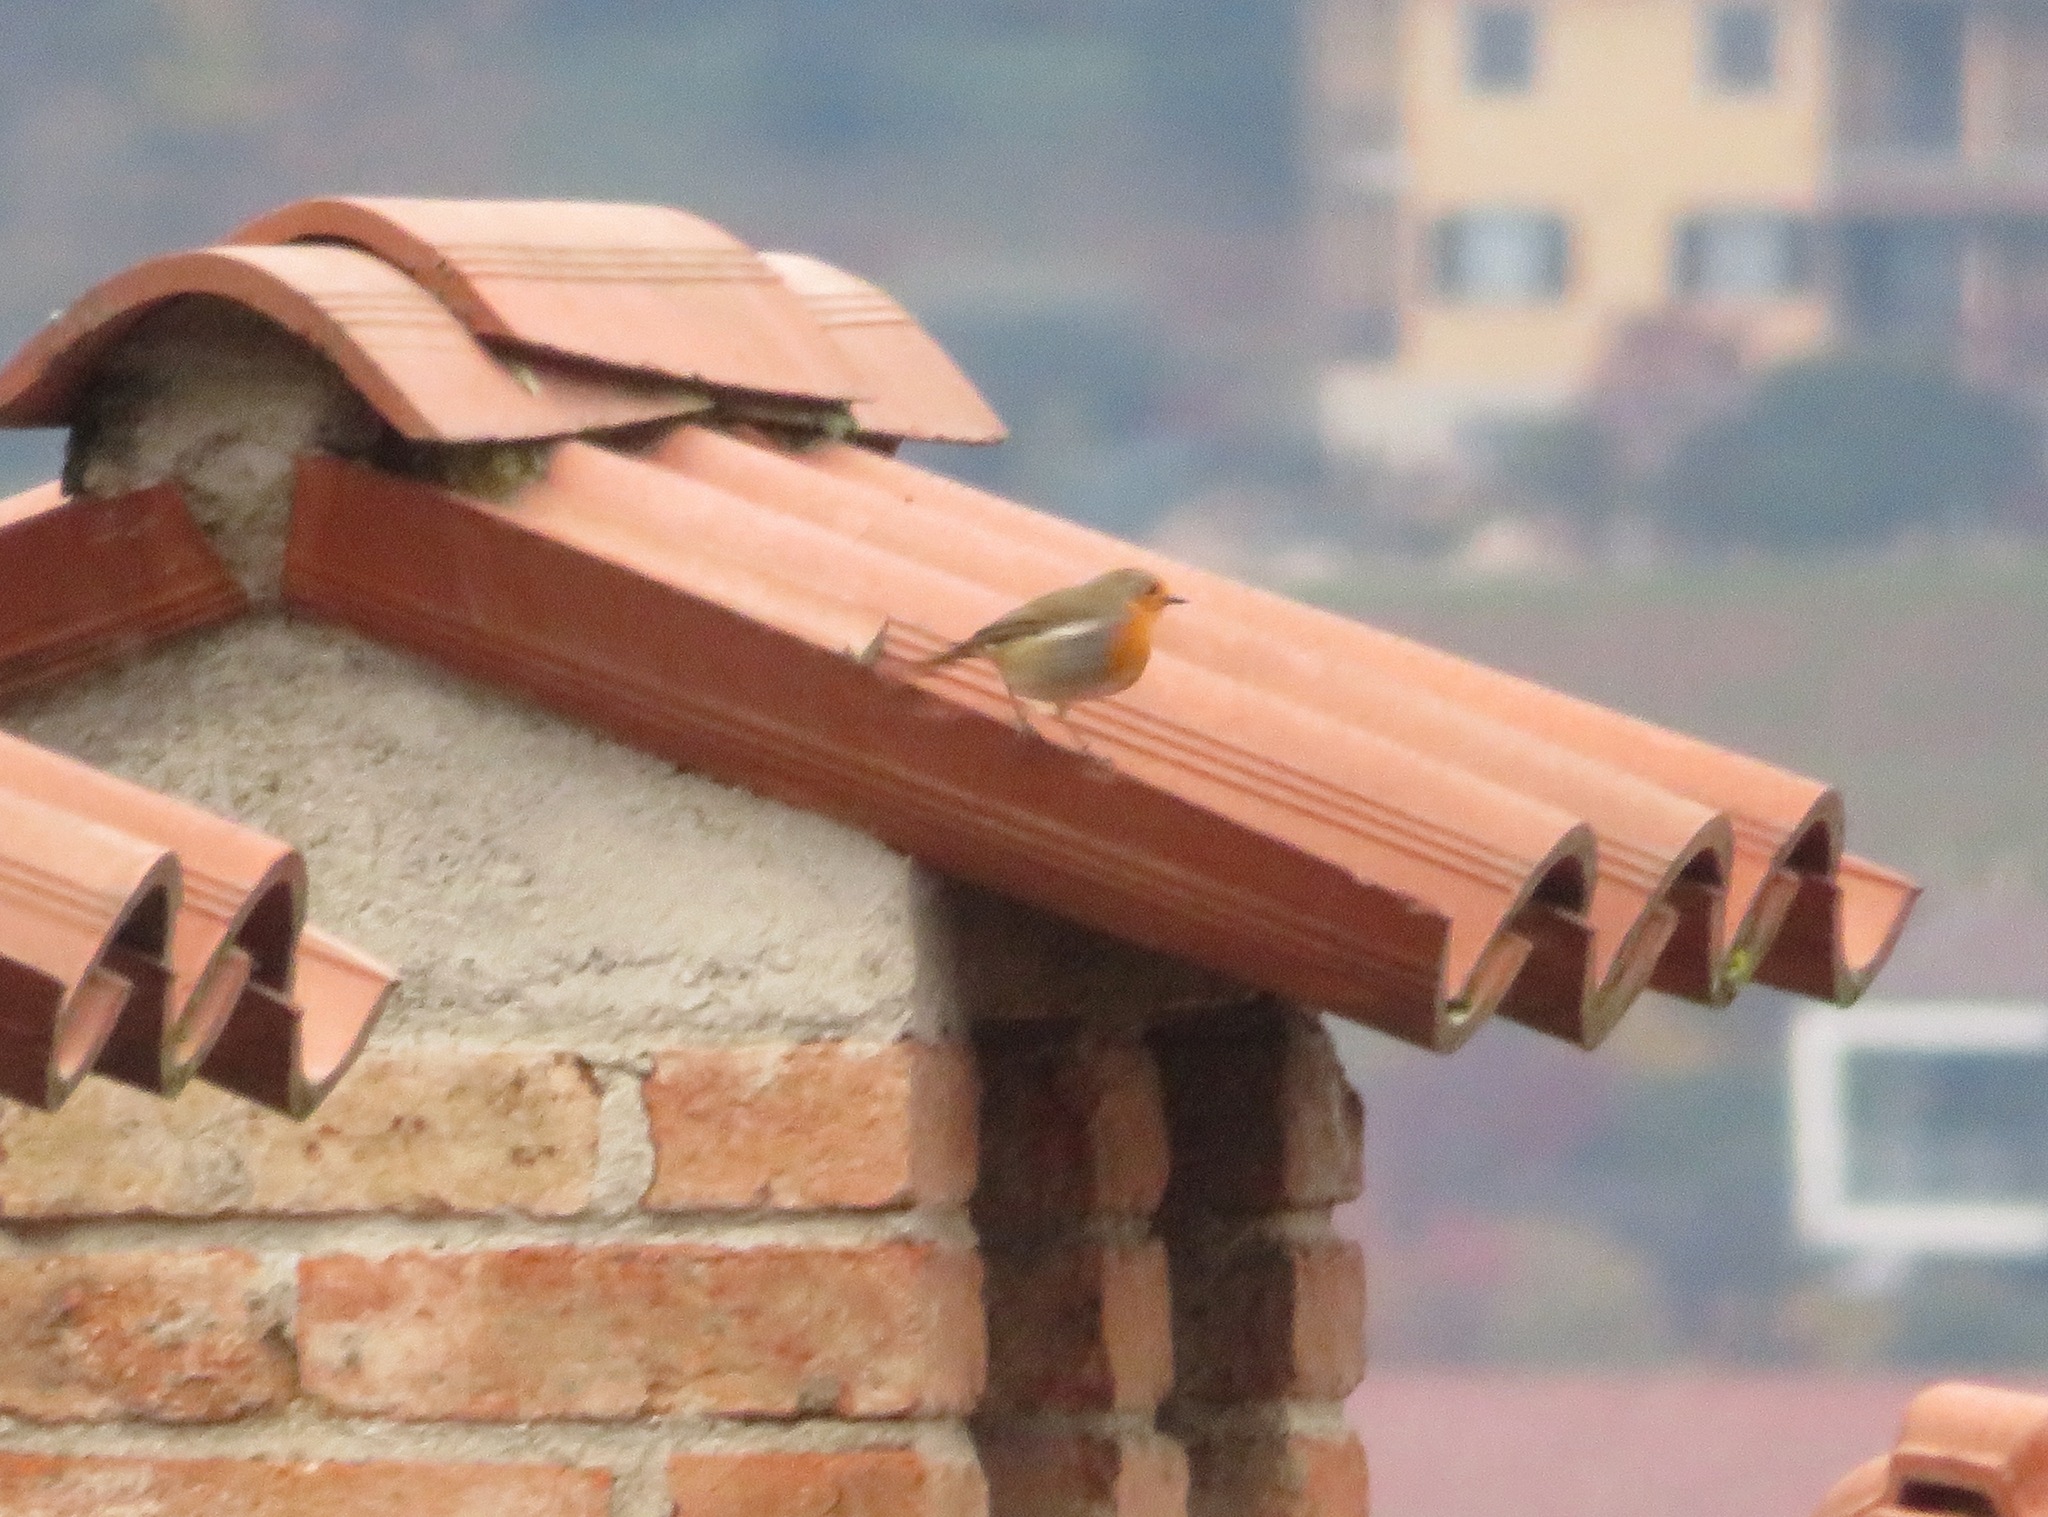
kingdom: Animalia
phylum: Chordata
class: Aves
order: Passeriformes
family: Muscicapidae
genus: Erithacus
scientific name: Erithacus rubecula
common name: European robin
